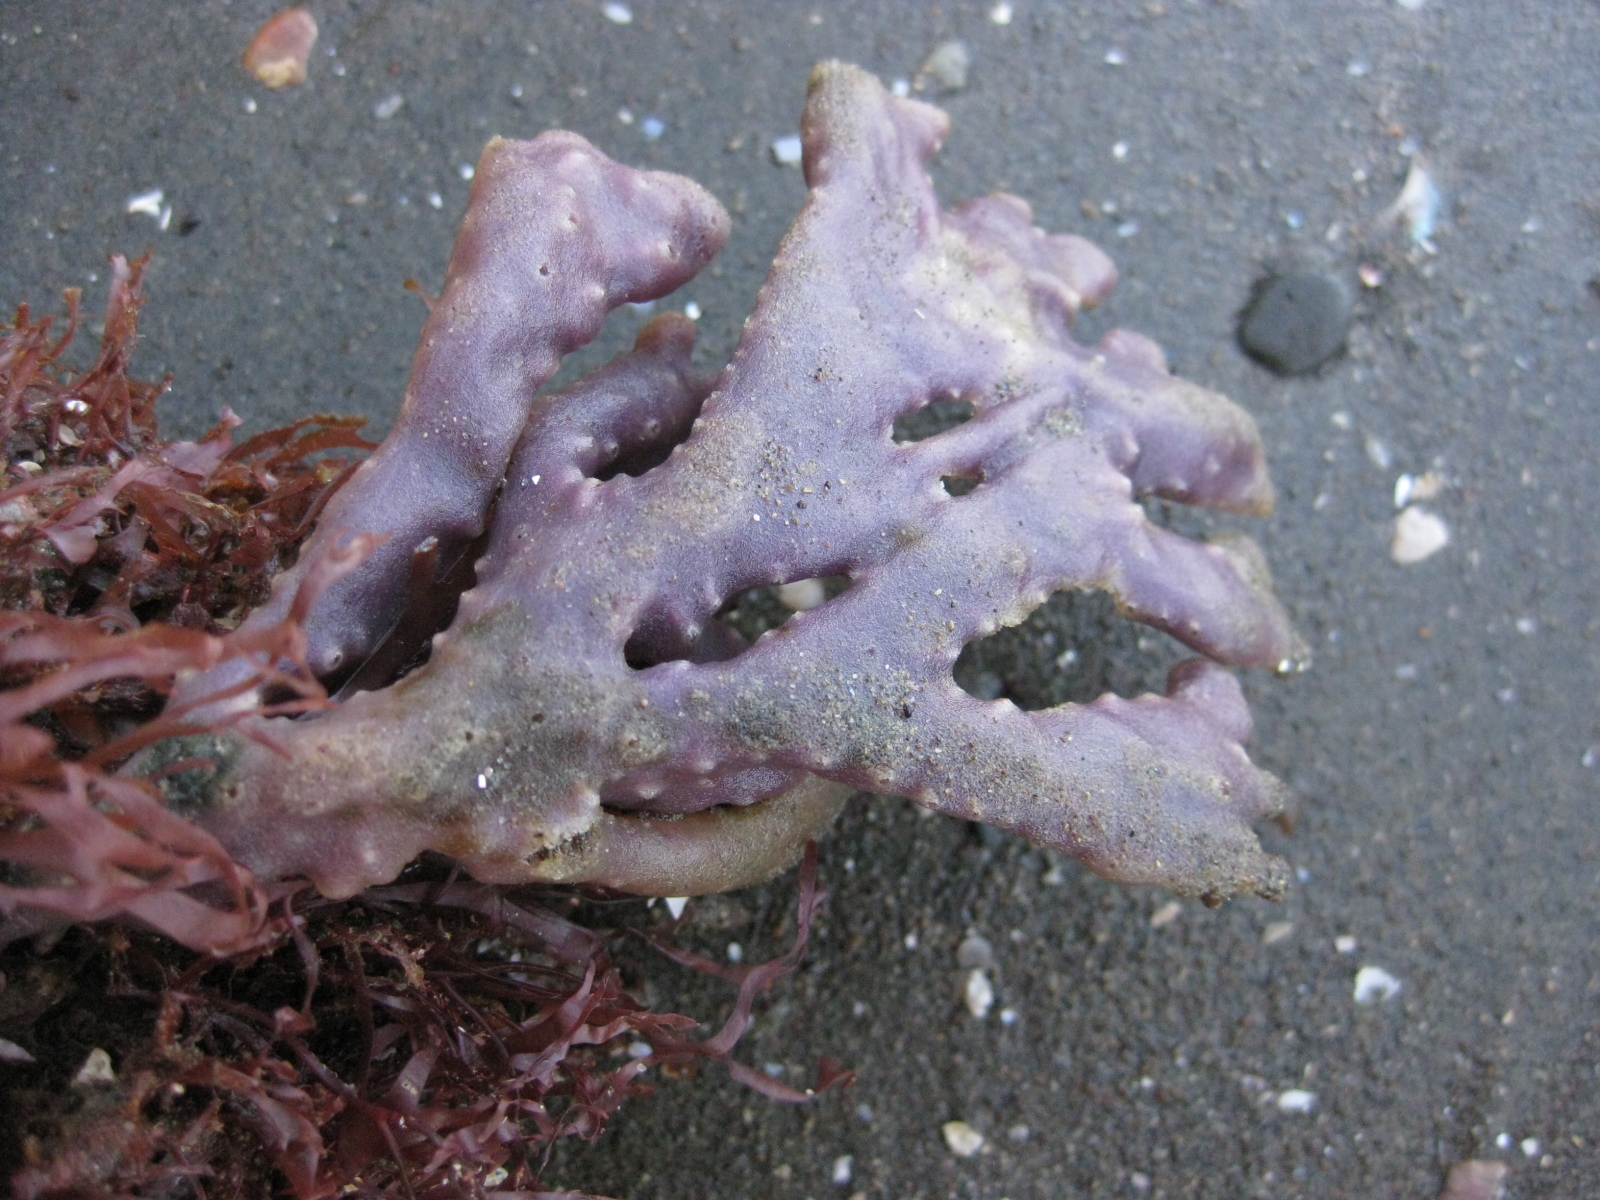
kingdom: Animalia
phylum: Porifera
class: Demospongiae
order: Haplosclerida
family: Callyspongiidae
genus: Dactylia
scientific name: Dactylia varia
